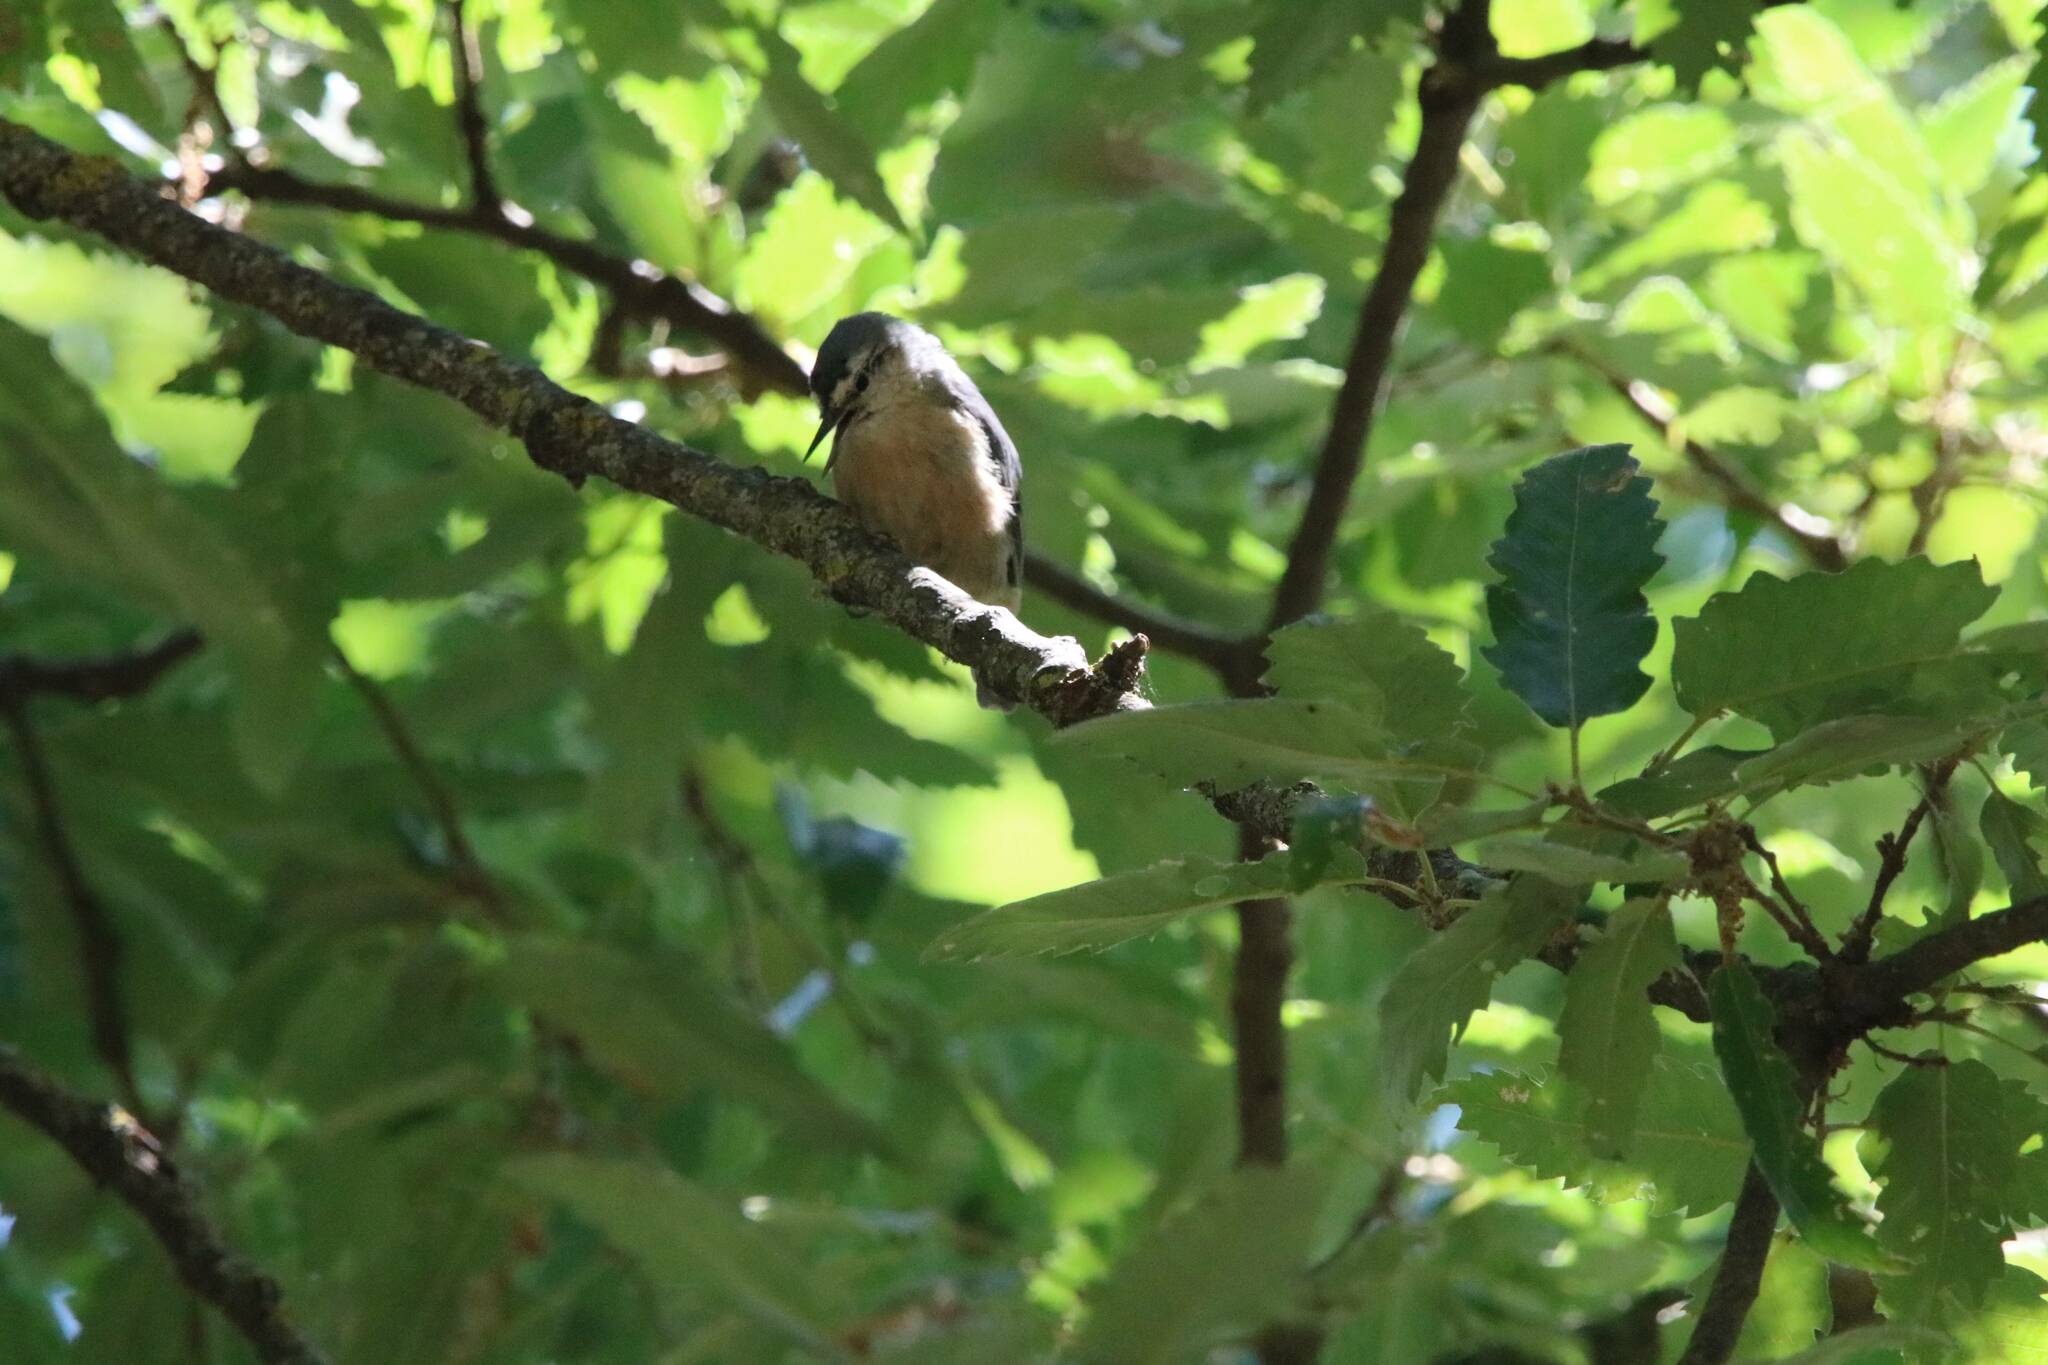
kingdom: Animalia
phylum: Chordata
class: Aves
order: Passeriformes
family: Sittidae
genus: Sitta
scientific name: Sitta ledanti
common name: Algerian nuthatch
